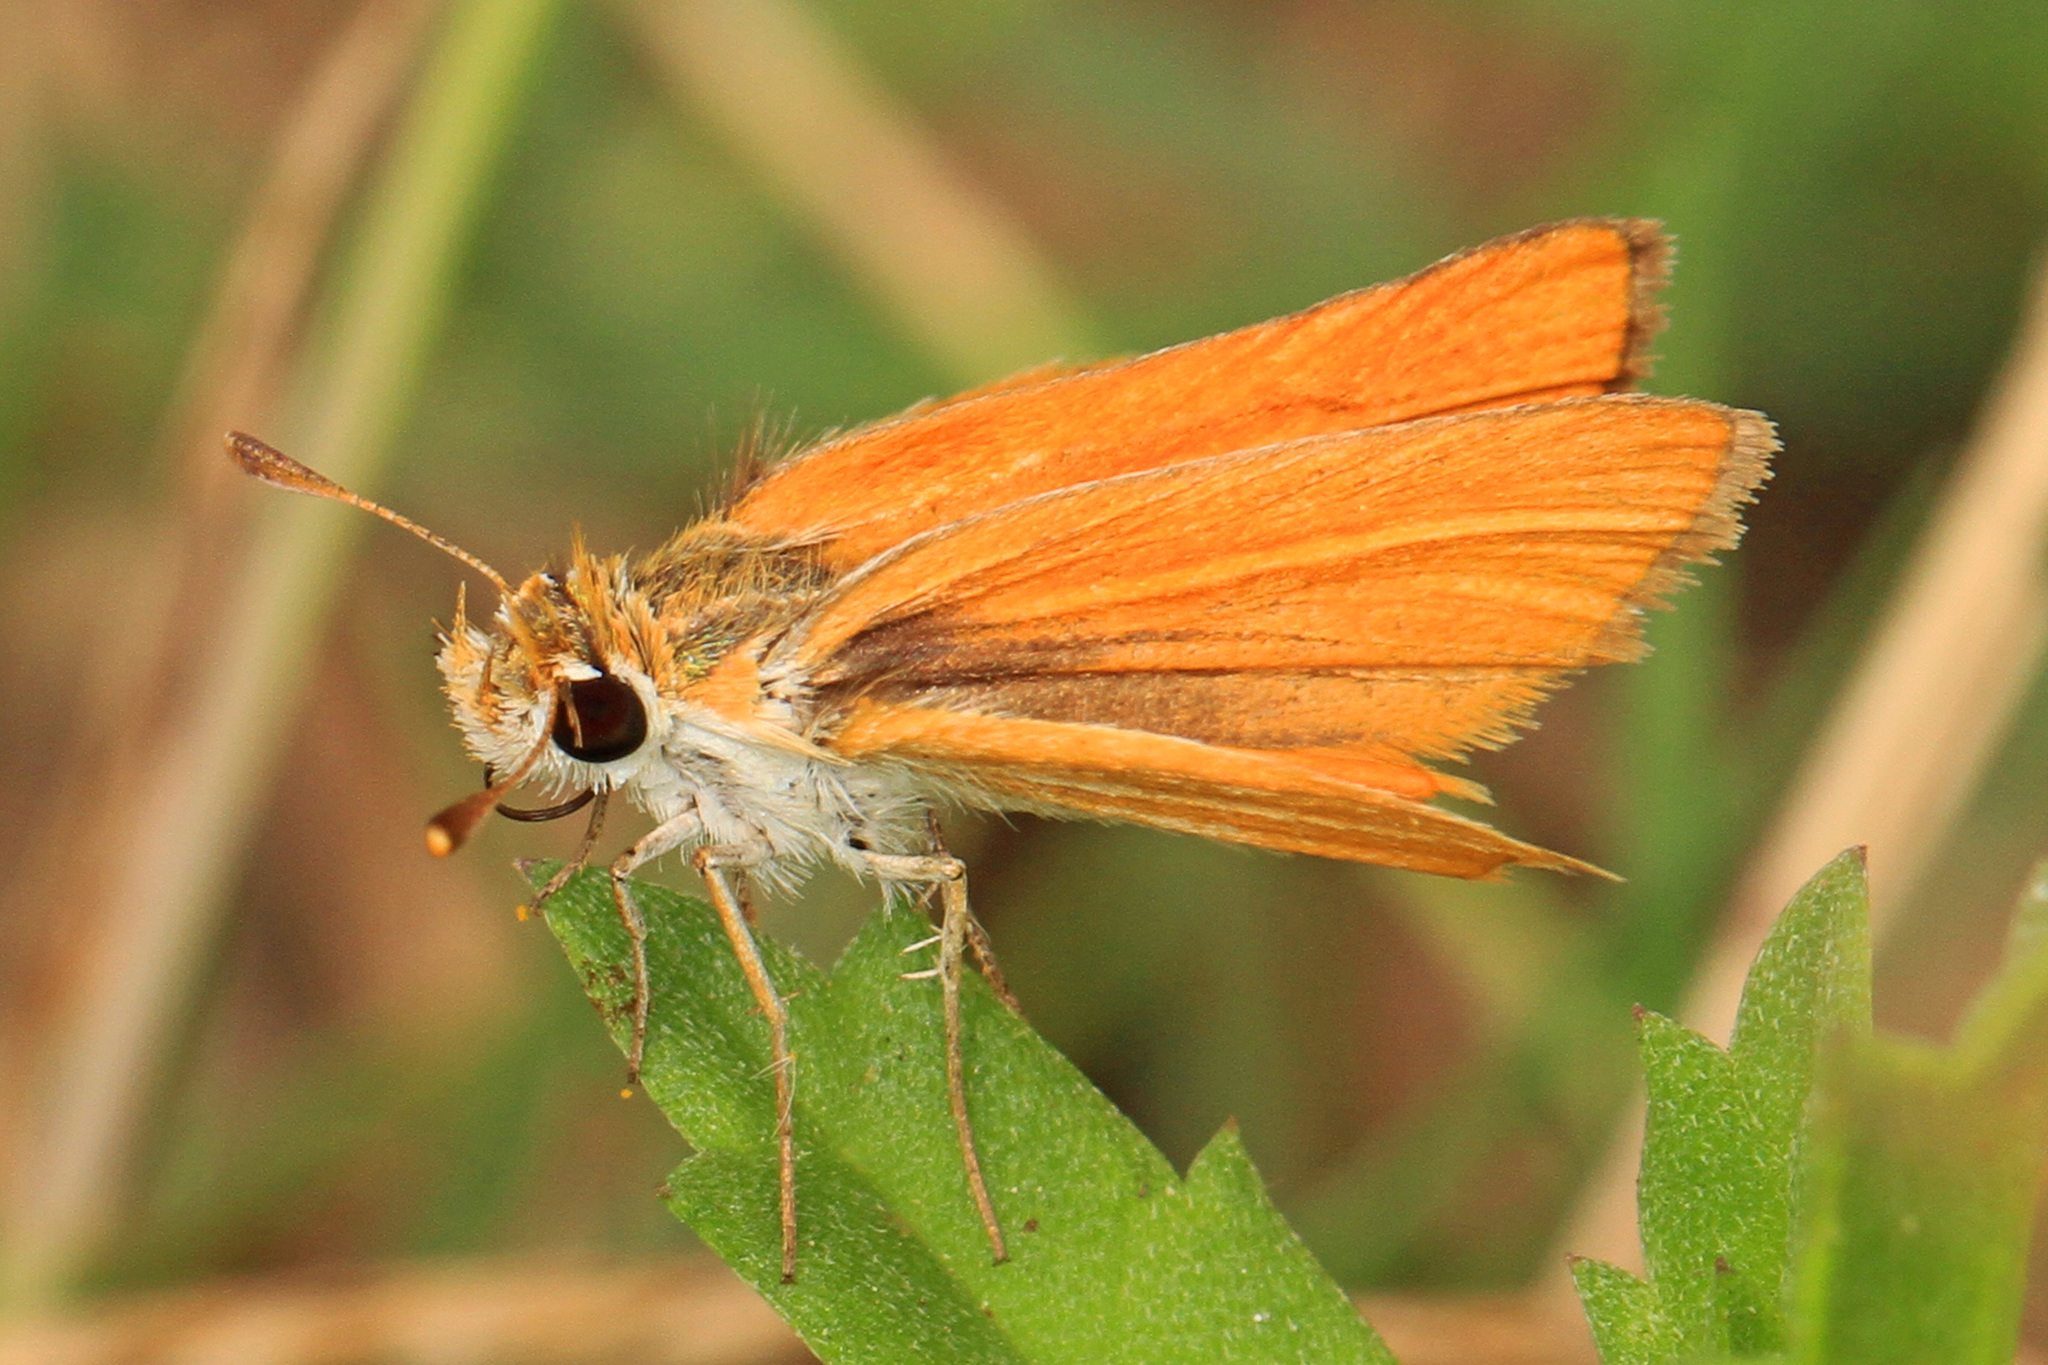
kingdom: Animalia
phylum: Arthropoda
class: Insecta
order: Lepidoptera
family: Hesperiidae
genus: Copaeodes
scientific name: Copaeodes minima
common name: Southern skipperling
